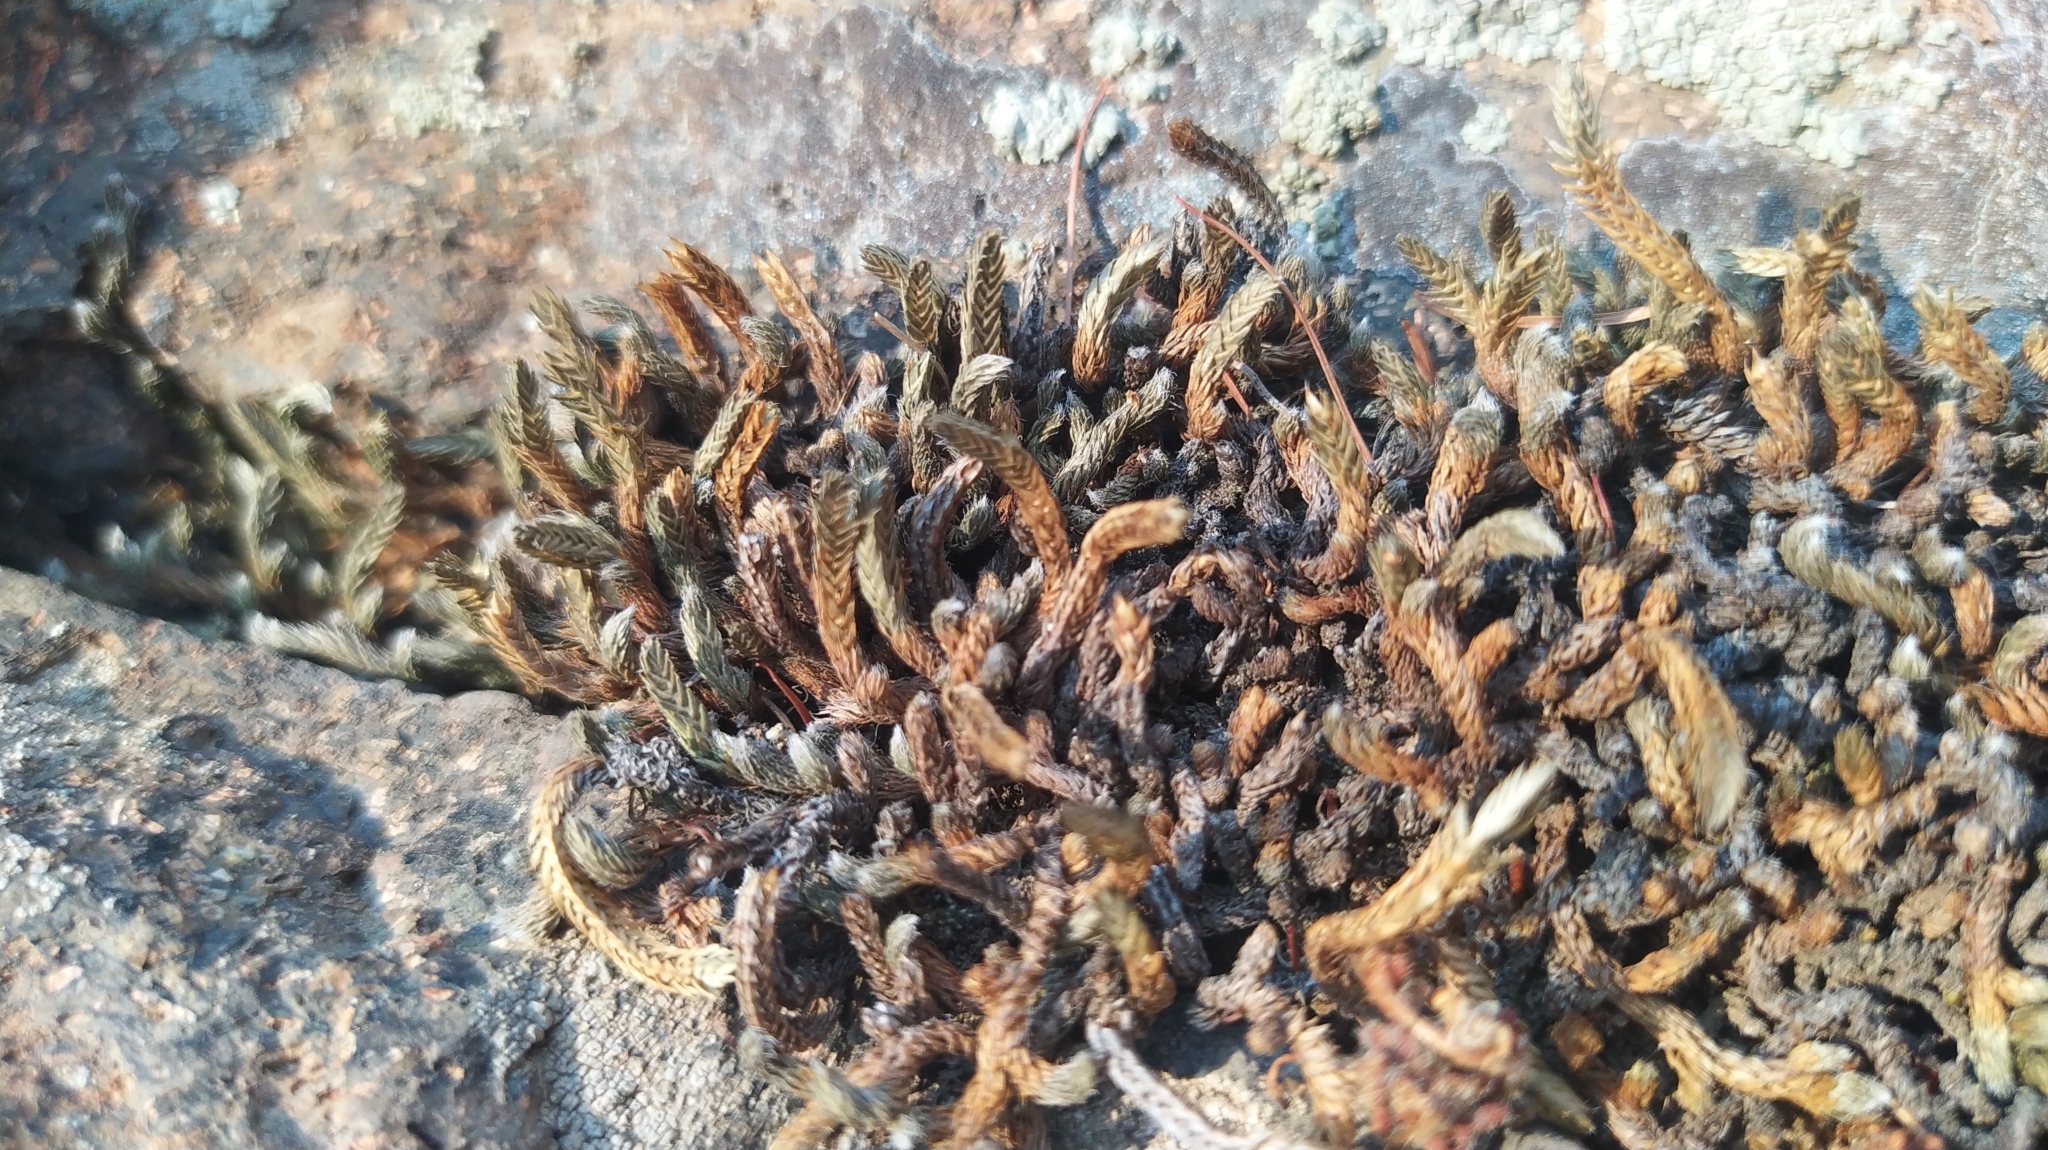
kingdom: Plantae
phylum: Tracheophyta
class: Lycopodiopsida
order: Selaginellales
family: Selaginellaceae
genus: Selaginella
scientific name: Selaginella rupestris
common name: Dwarf spikemoss
